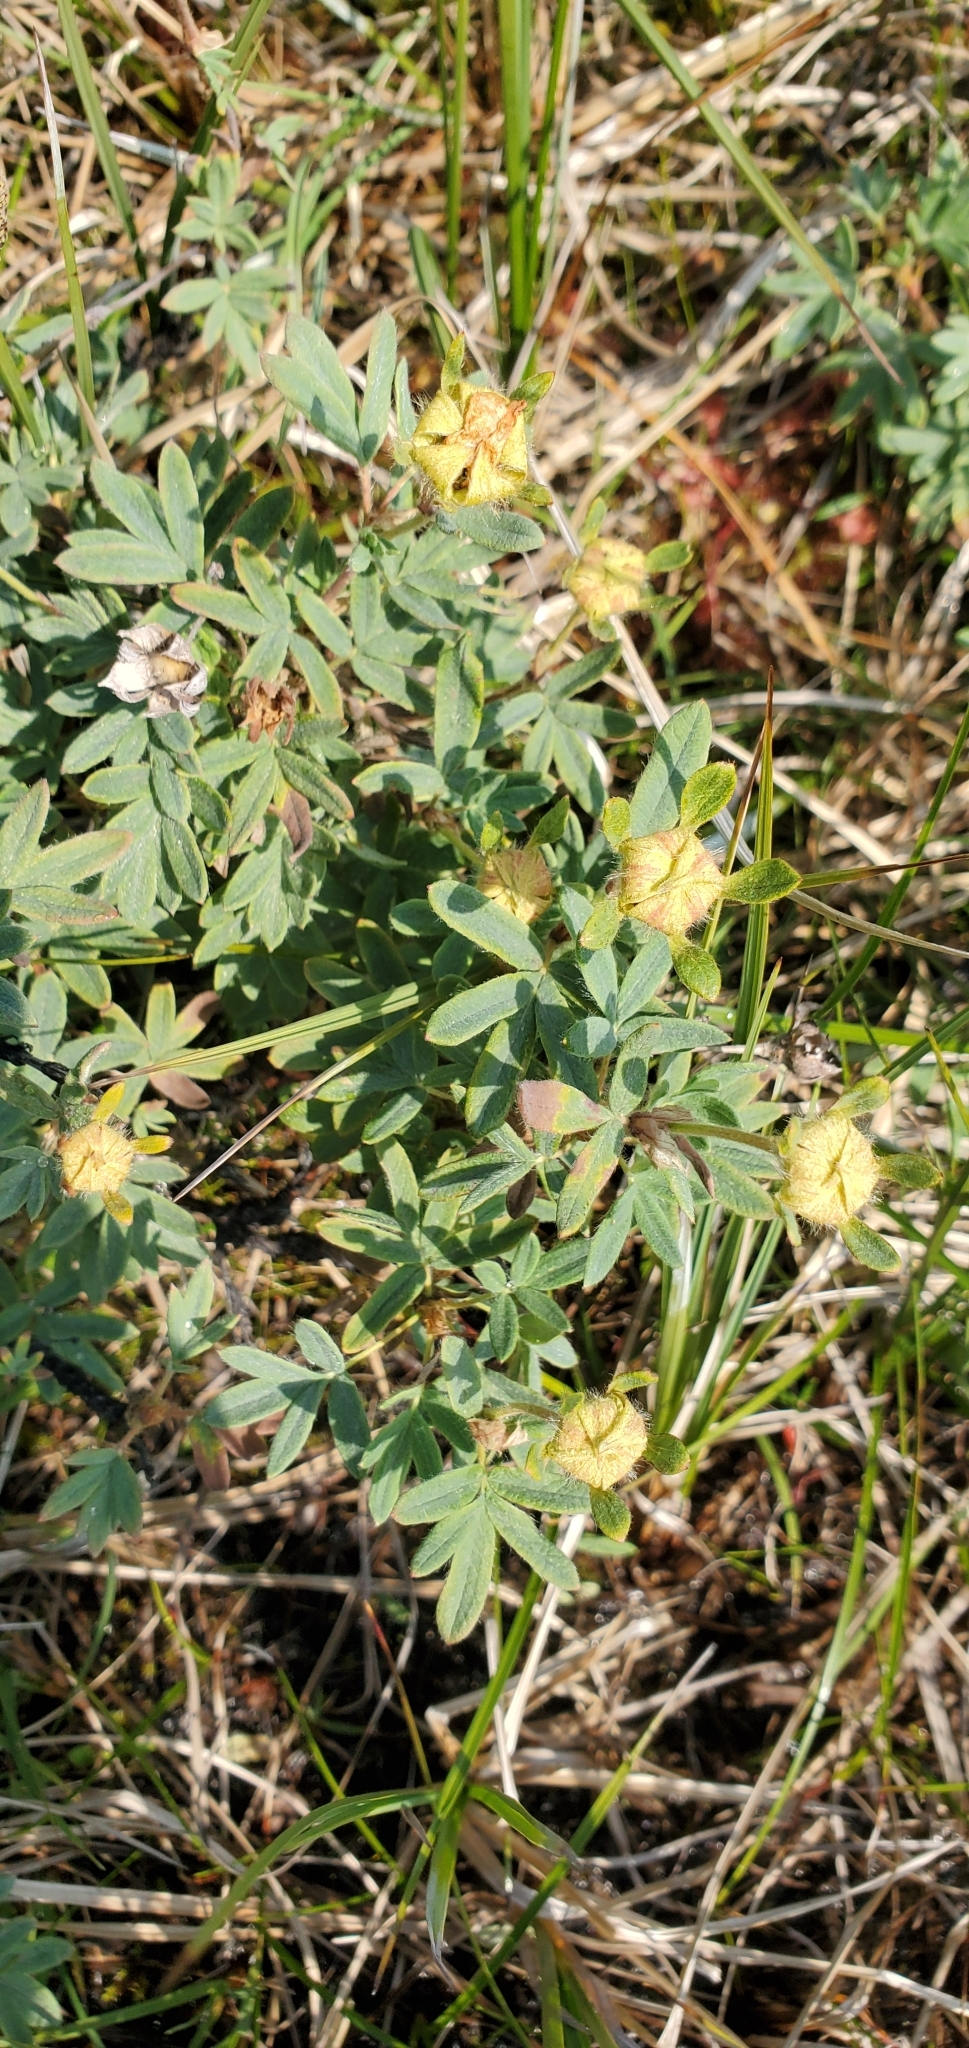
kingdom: Plantae
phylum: Tracheophyta
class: Magnoliopsida
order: Rosales
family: Rosaceae
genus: Dasiphora
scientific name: Dasiphora fruticosa
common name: Shrubby cinquefoil
